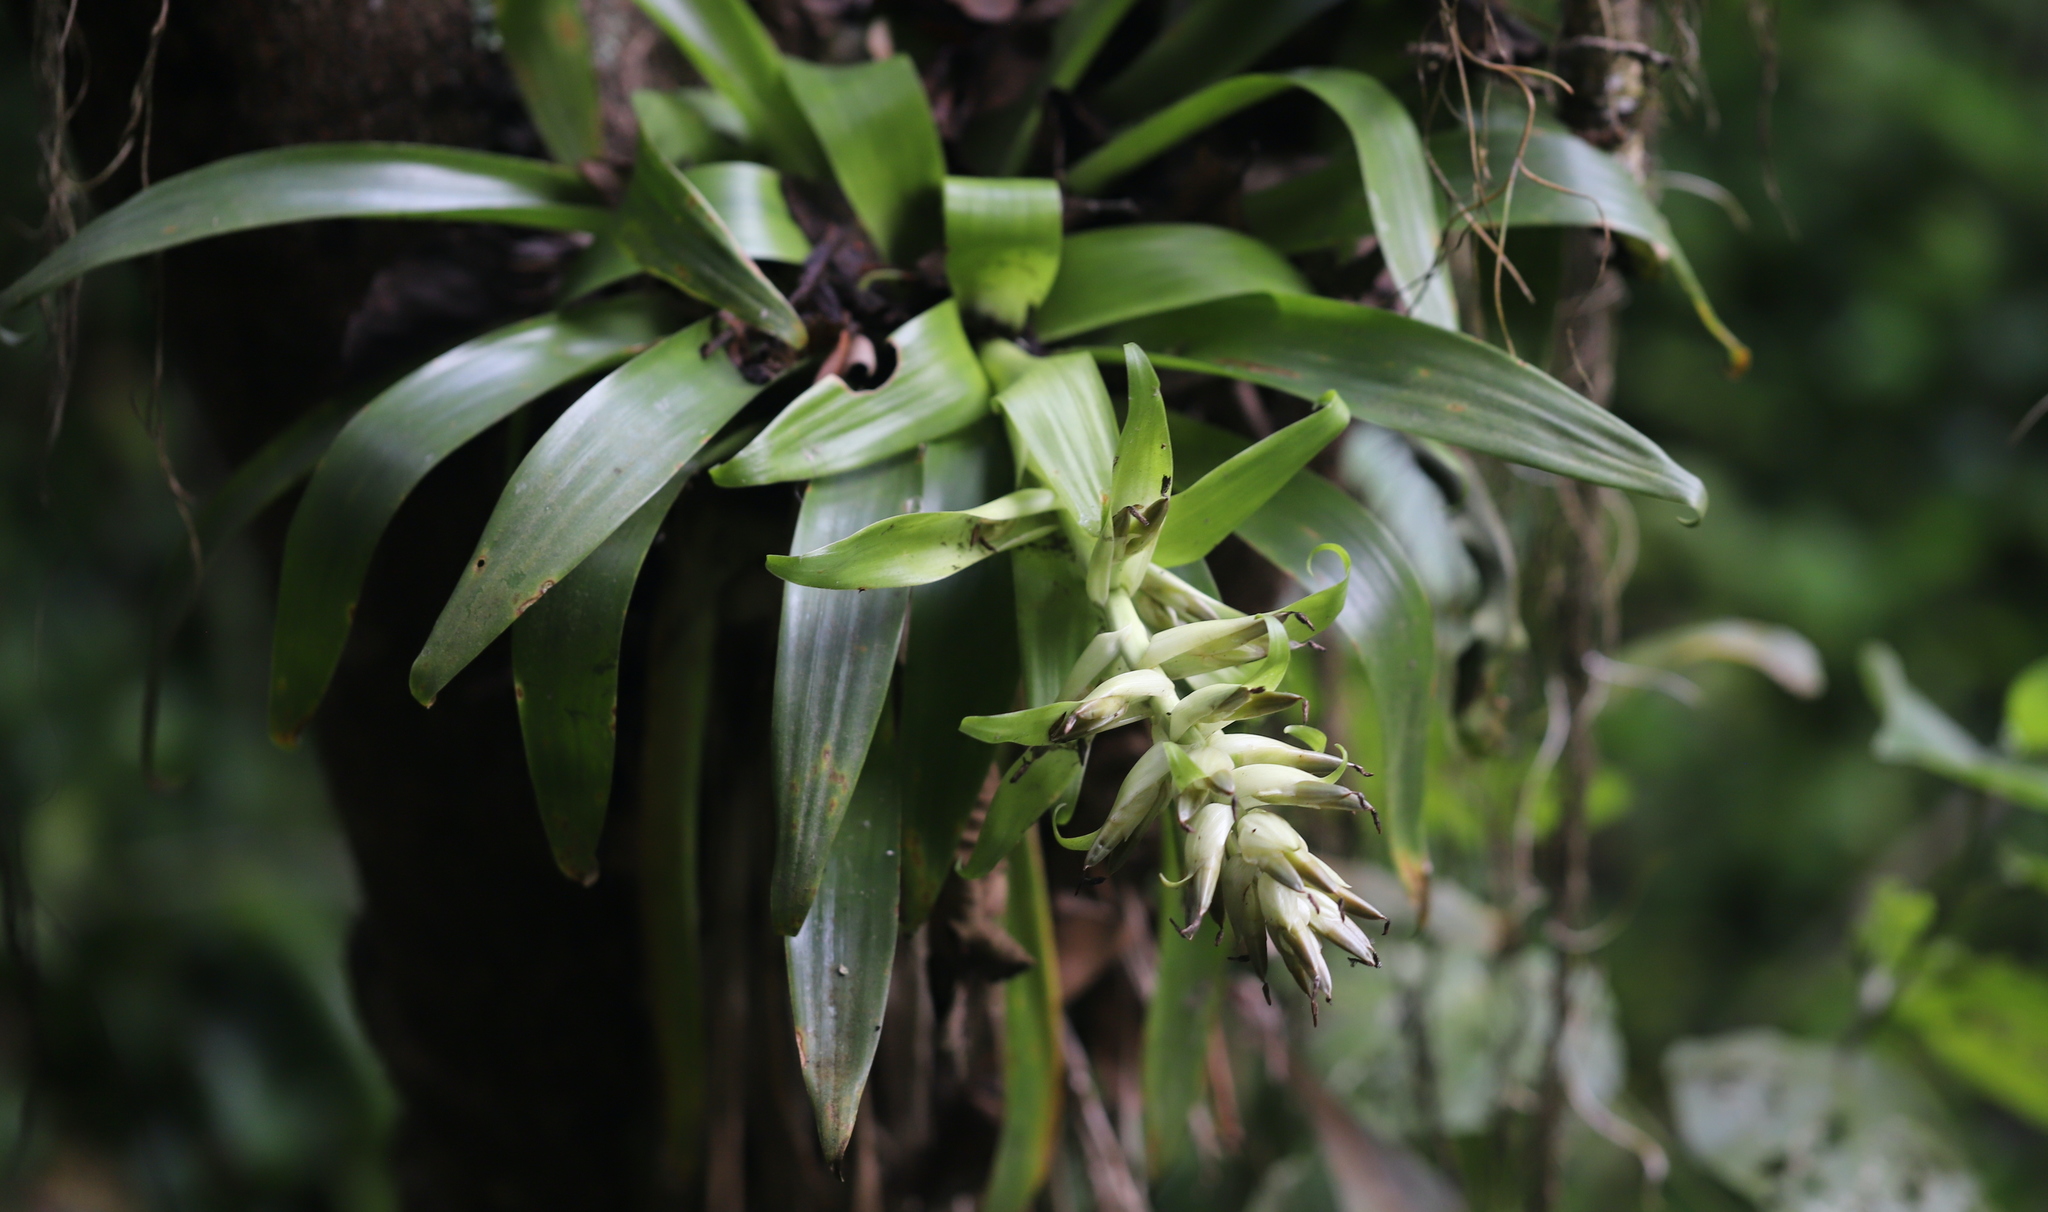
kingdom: Plantae
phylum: Tracheophyta
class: Liliopsida
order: Poales
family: Bromeliaceae
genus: Tillandsia
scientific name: Tillandsia biflora
